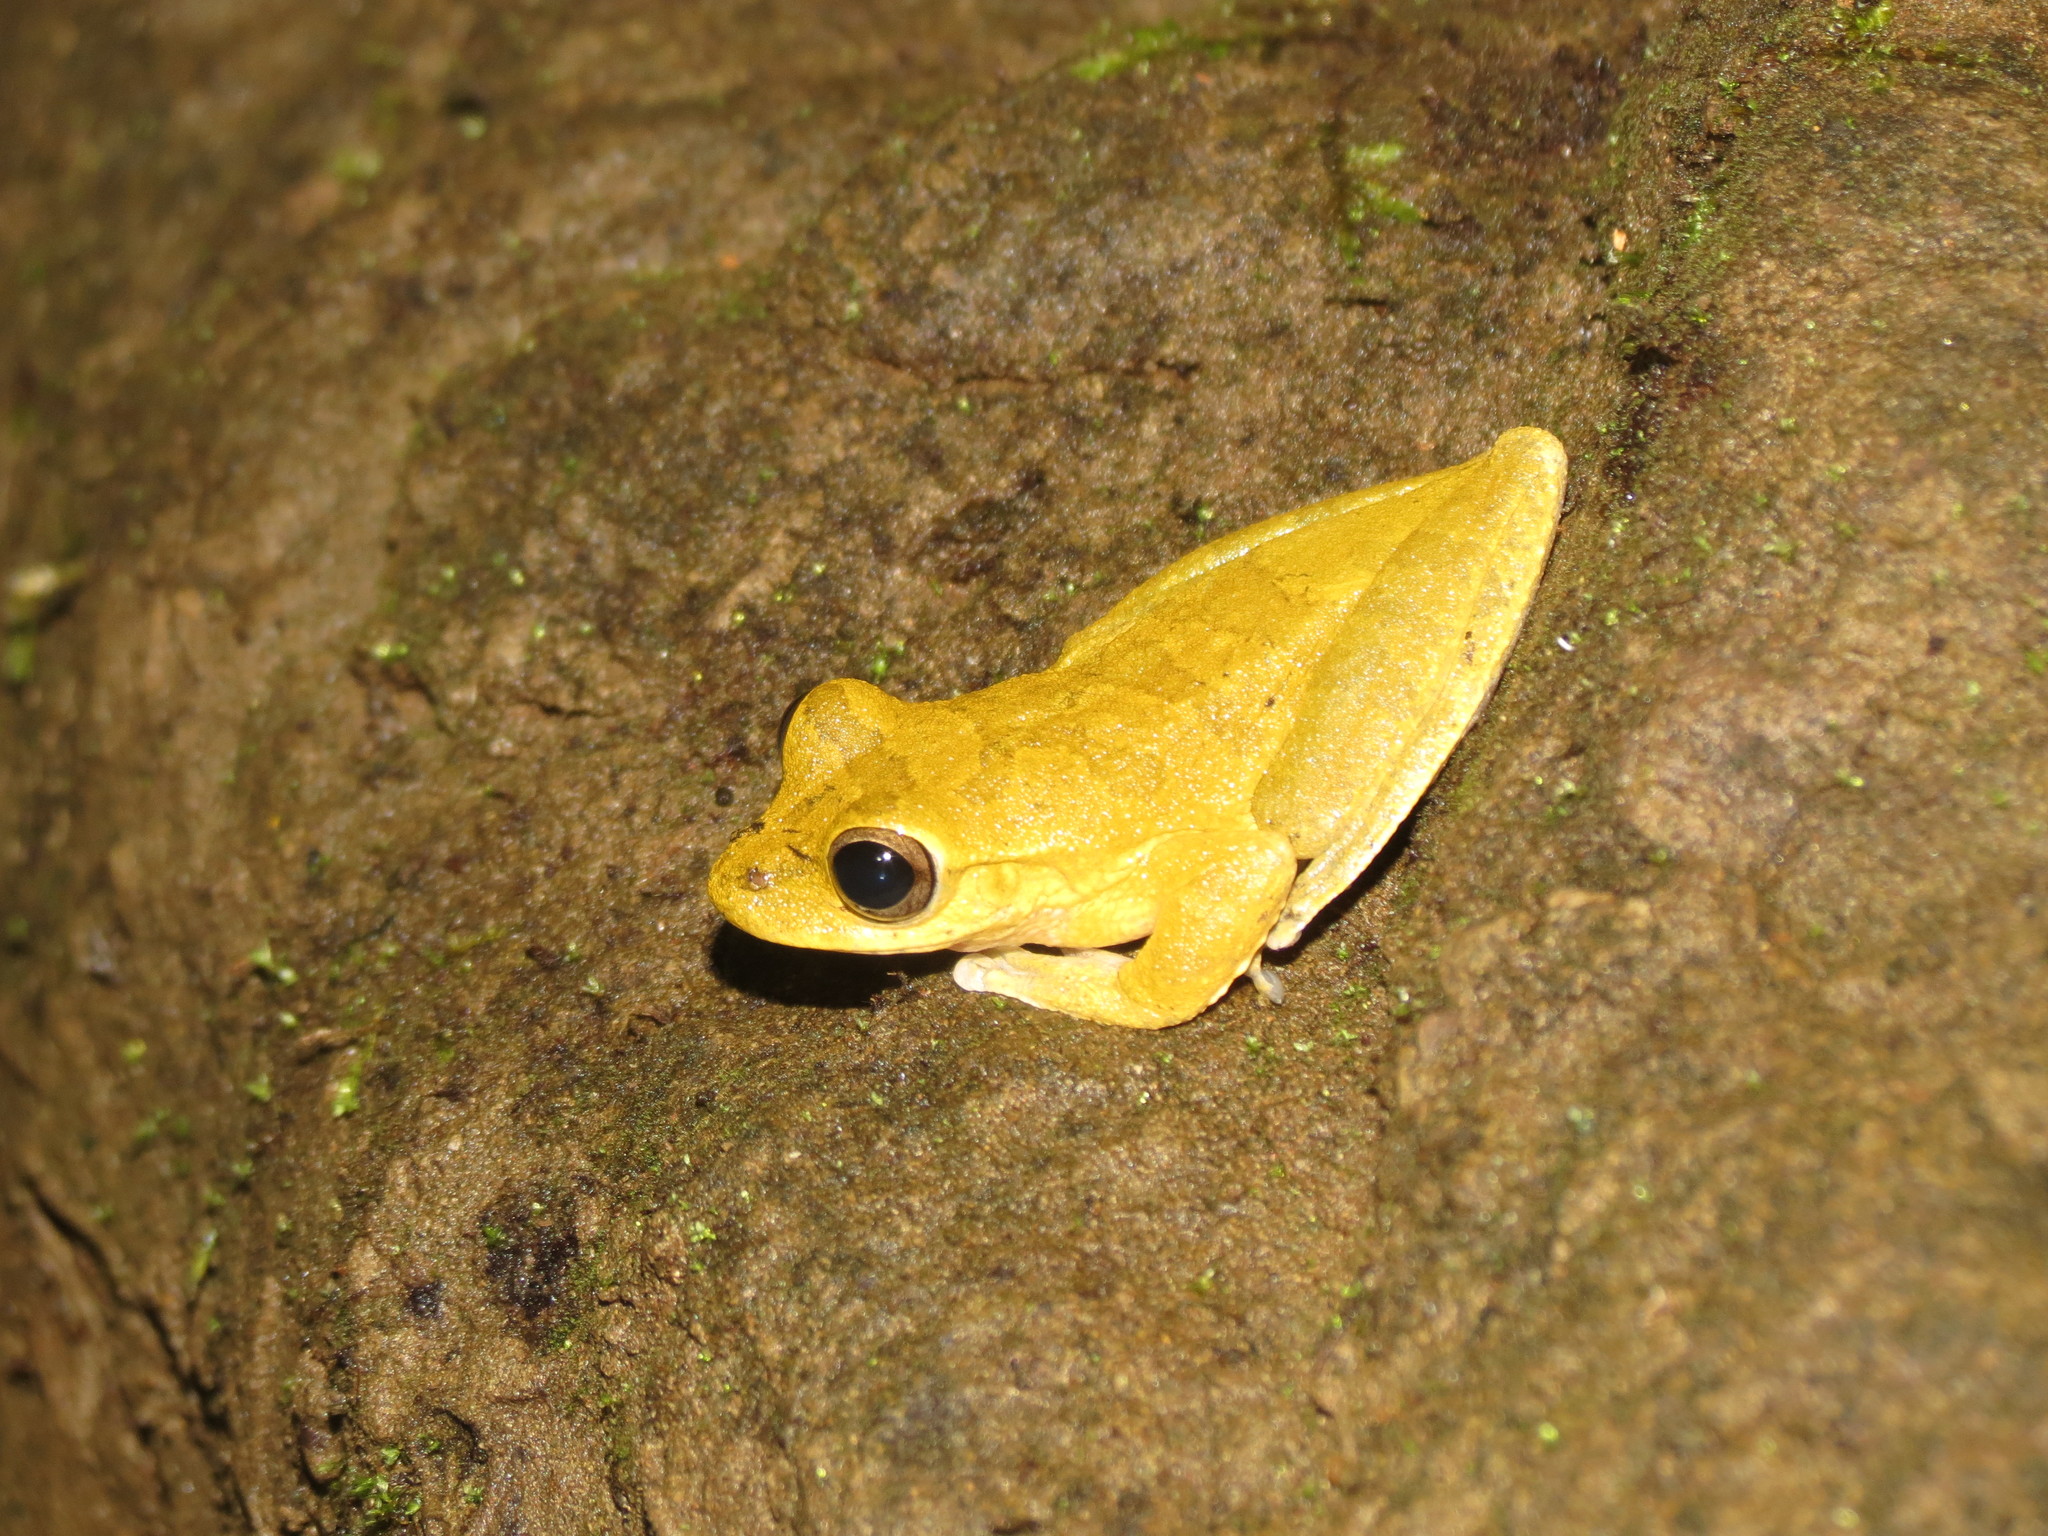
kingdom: Animalia
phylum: Chordata
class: Amphibia
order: Anura
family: Hylidae
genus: Smilisca
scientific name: Smilisca sordida
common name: Veragua cross-banded treefrog
